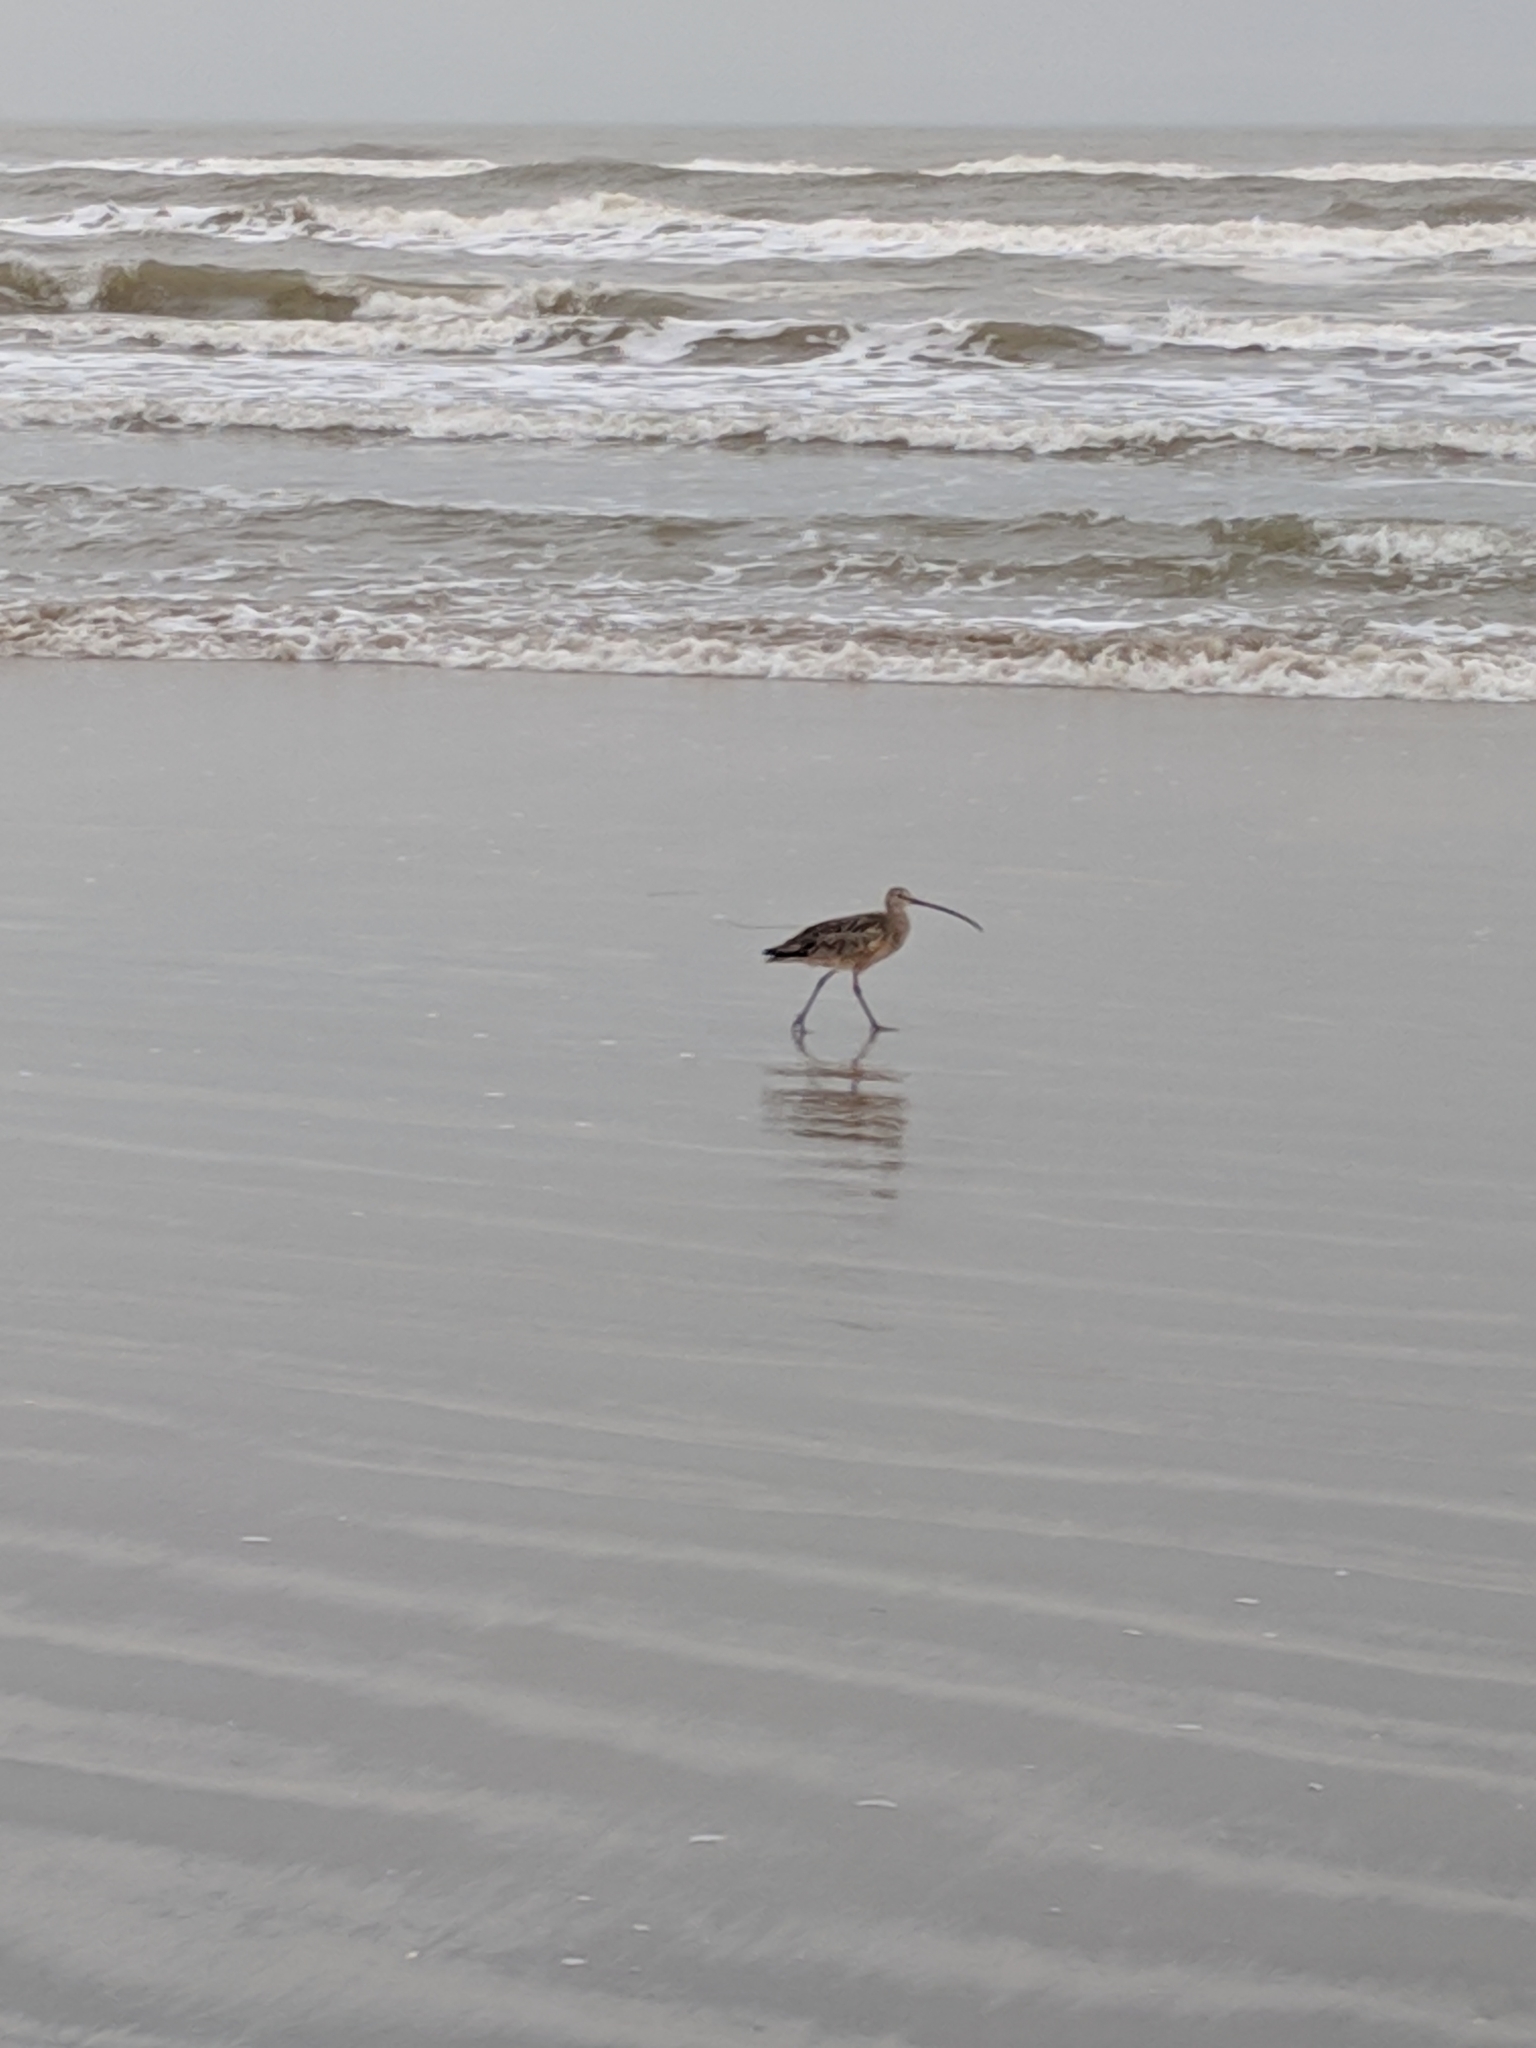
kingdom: Animalia
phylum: Chordata
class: Aves
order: Charadriiformes
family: Scolopacidae
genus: Numenius
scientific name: Numenius americanus
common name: Long-billed curlew
